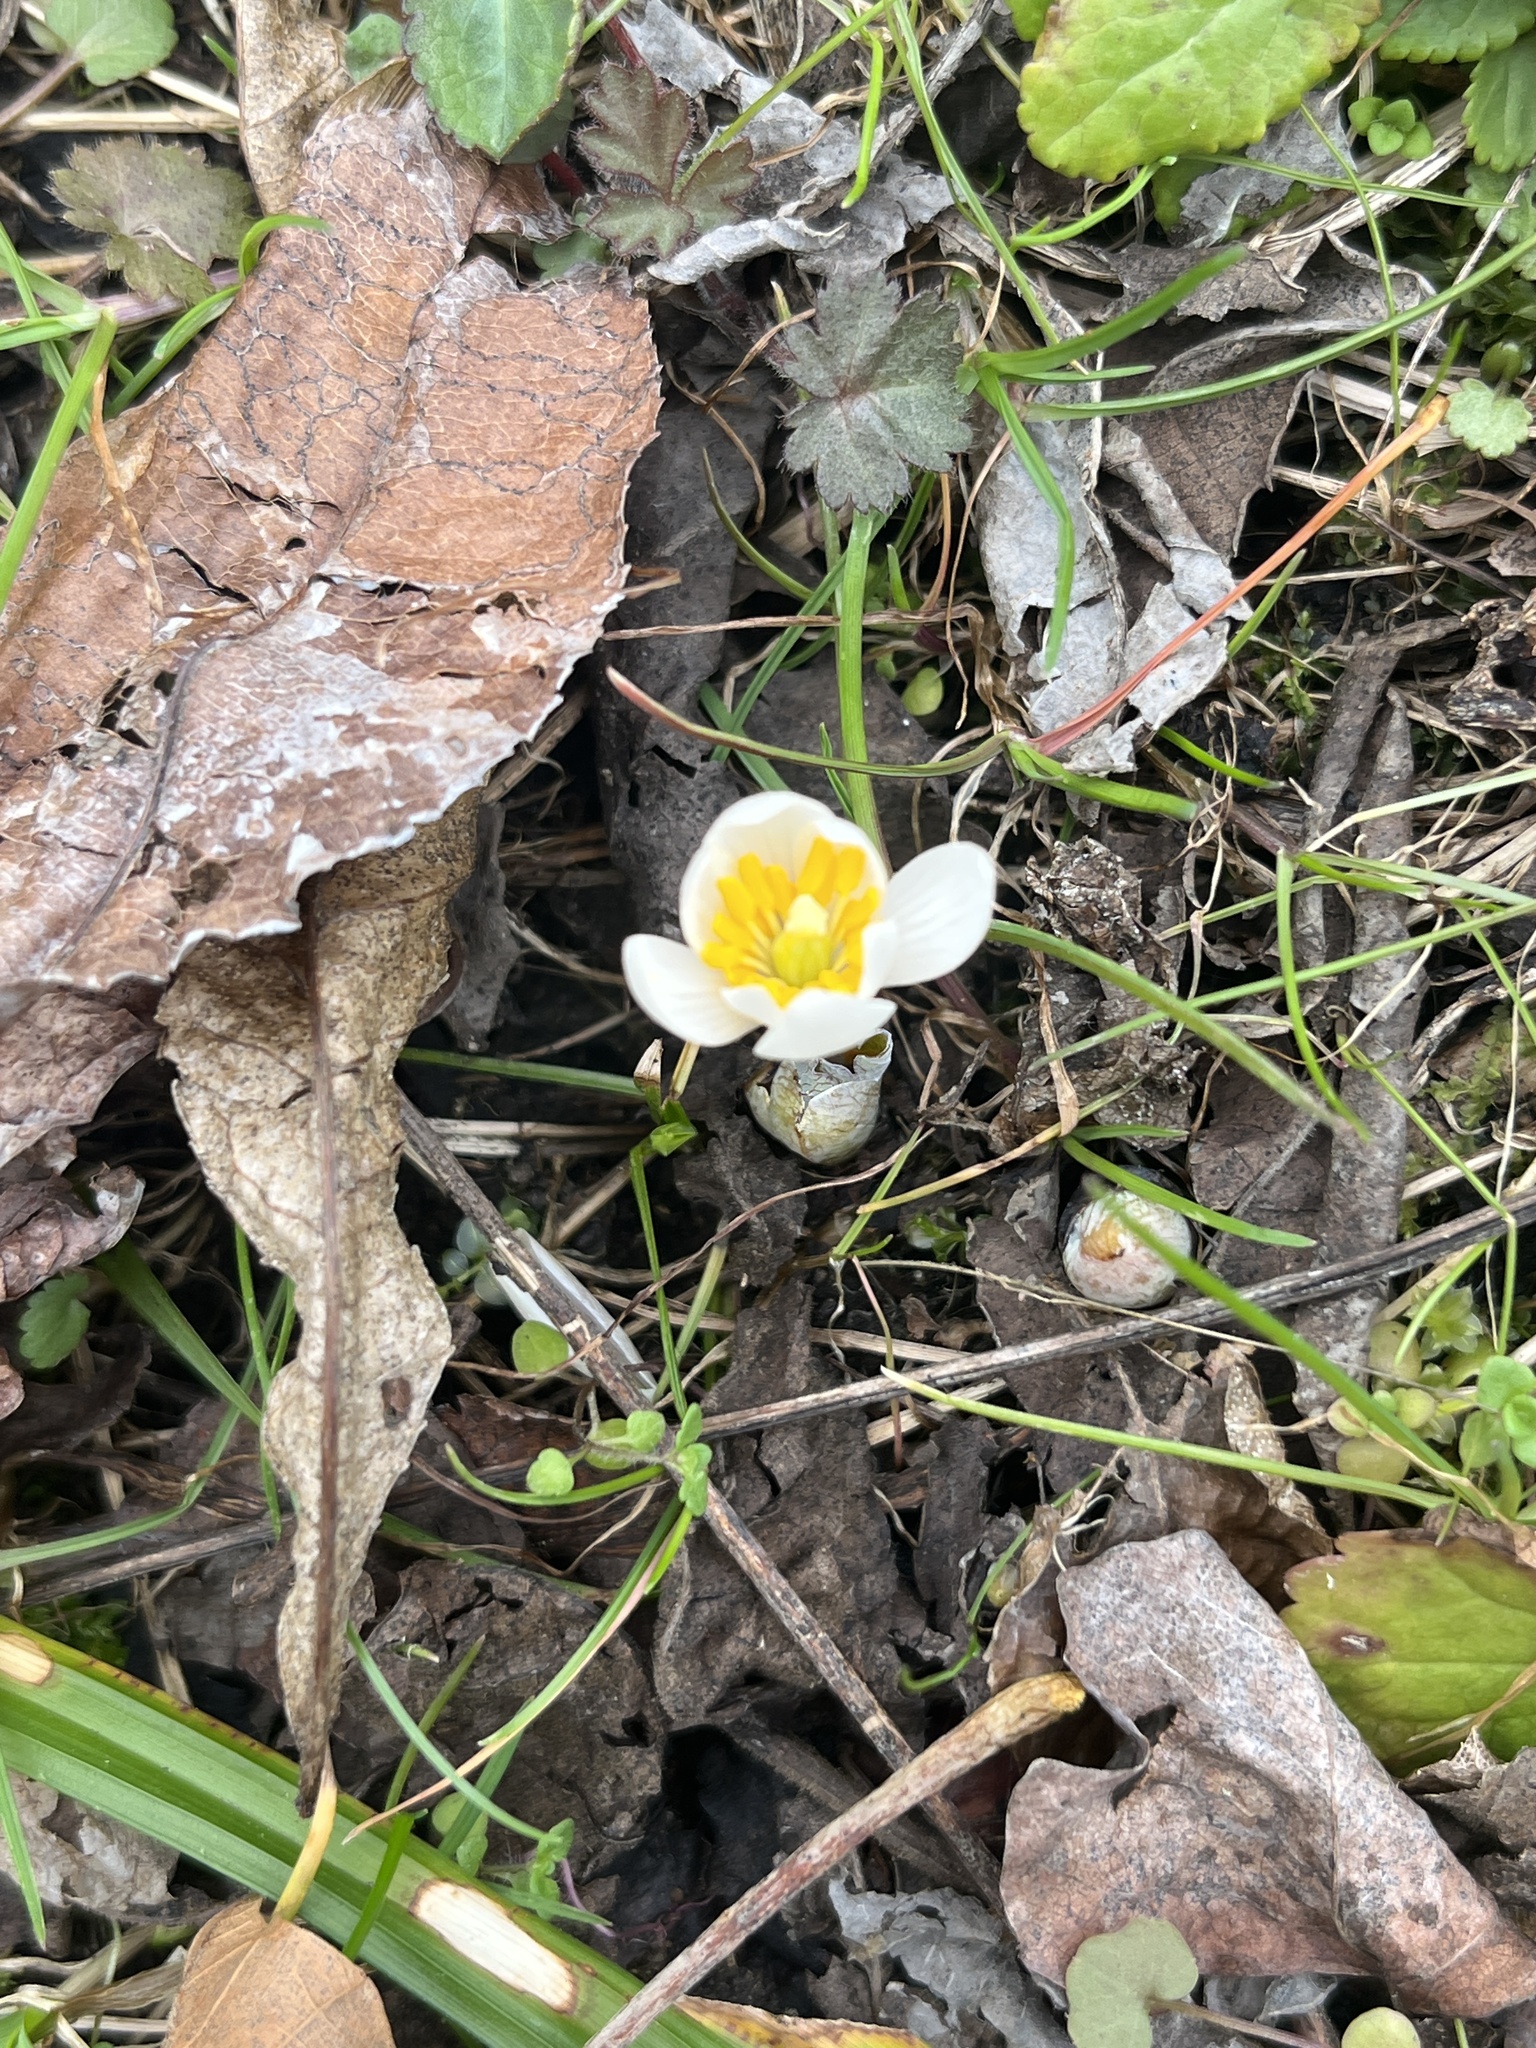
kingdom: Plantae
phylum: Tracheophyta
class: Magnoliopsida
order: Ranunculales
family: Papaveraceae
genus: Sanguinaria
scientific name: Sanguinaria canadensis
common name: Bloodroot
